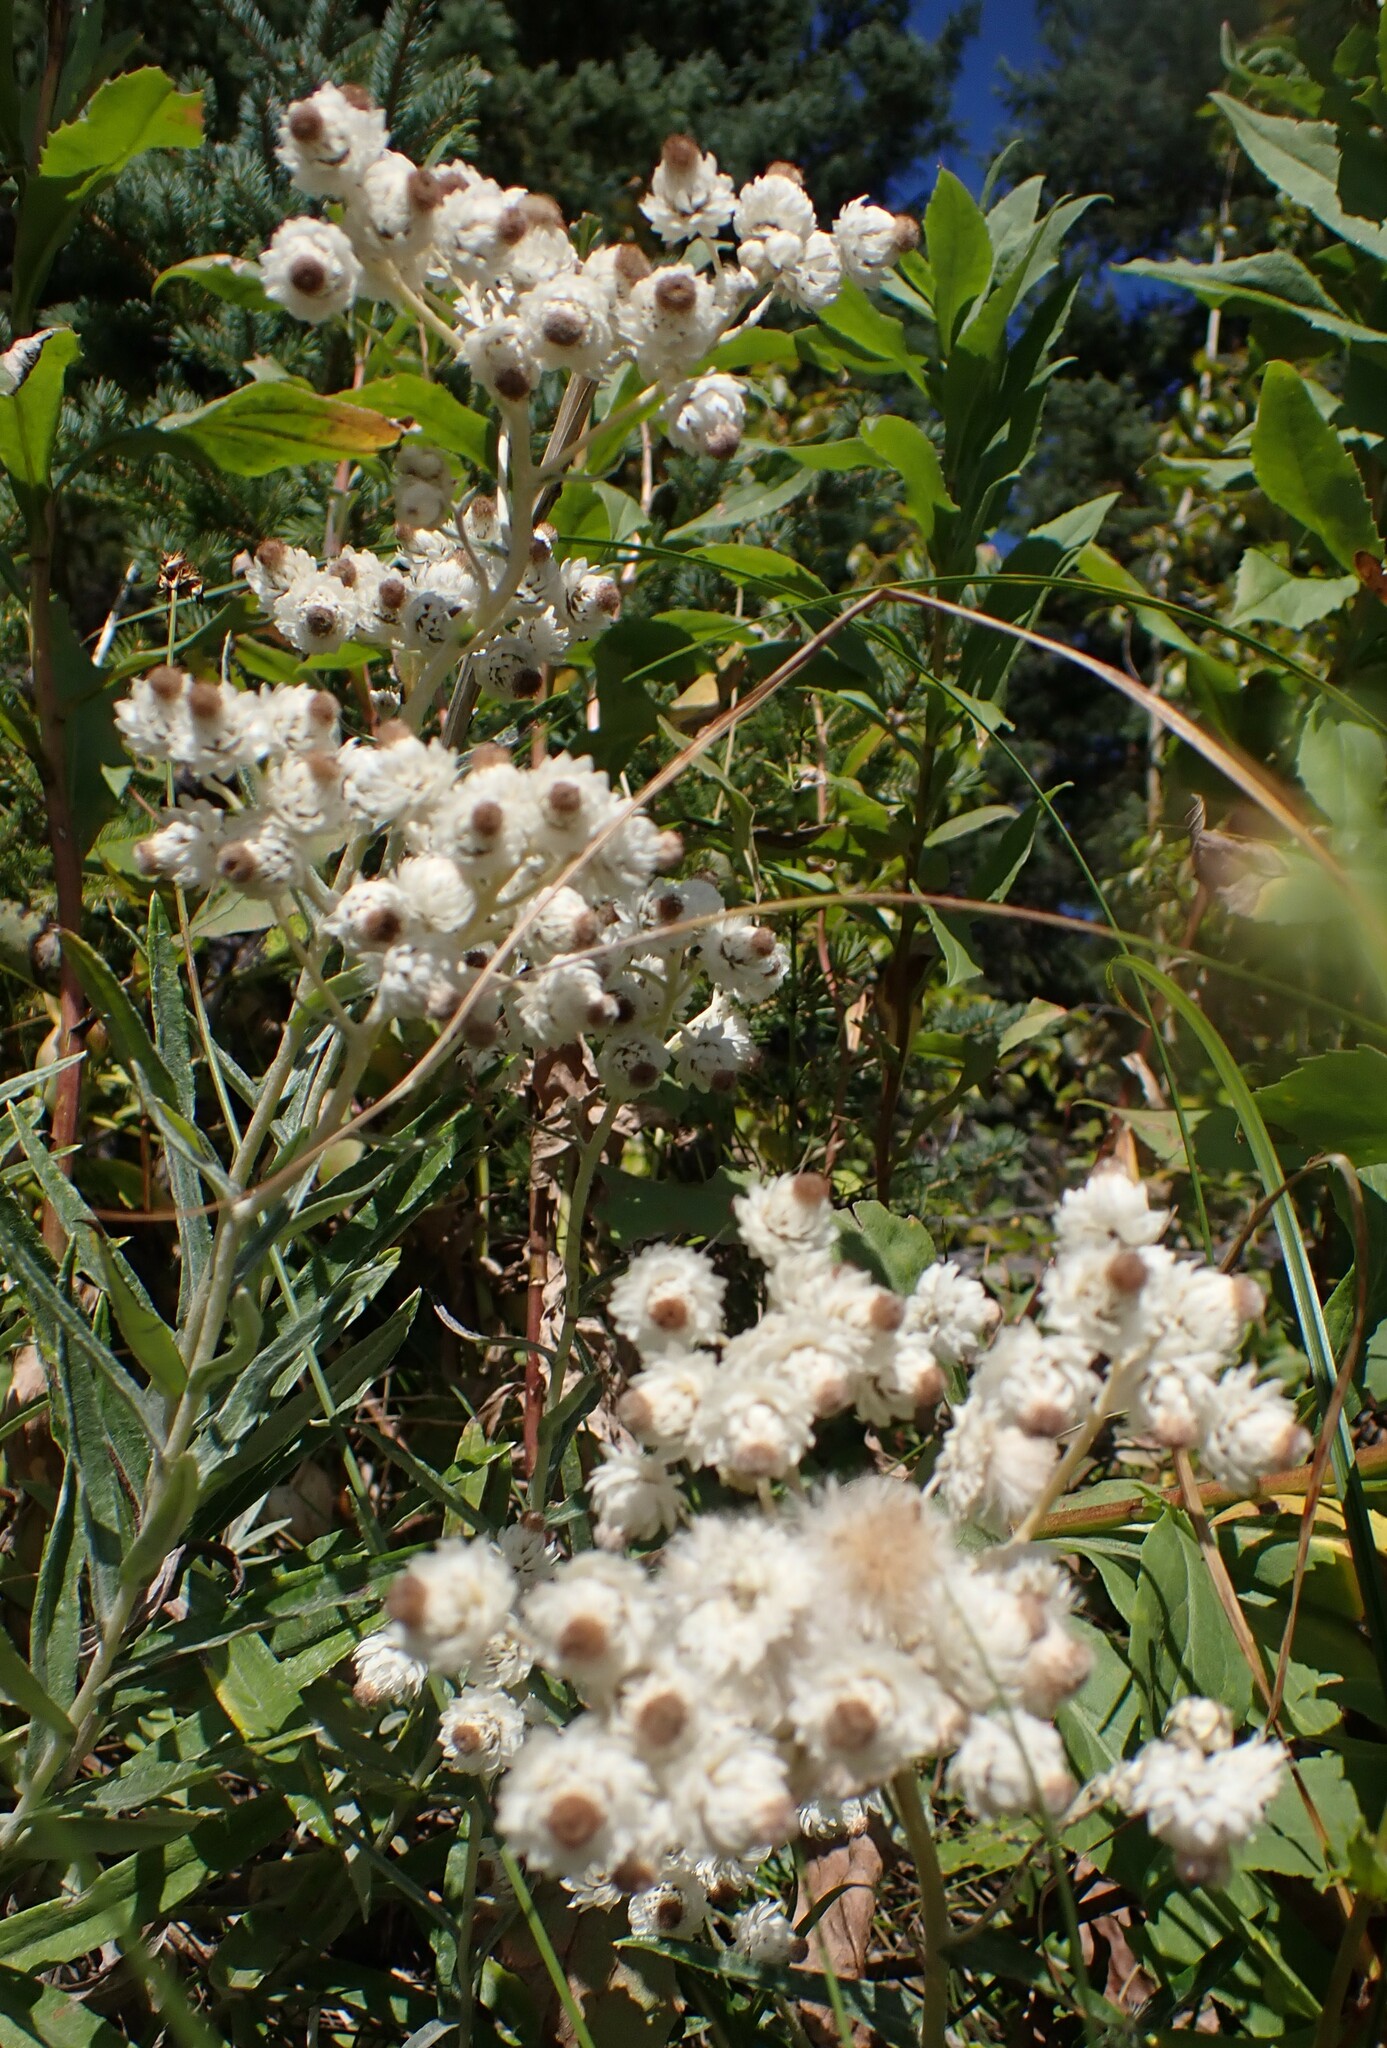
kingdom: Plantae
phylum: Tracheophyta
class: Magnoliopsida
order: Asterales
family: Asteraceae
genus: Anaphalis
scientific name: Anaphalis margaritacea
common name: Pearly everlasting
